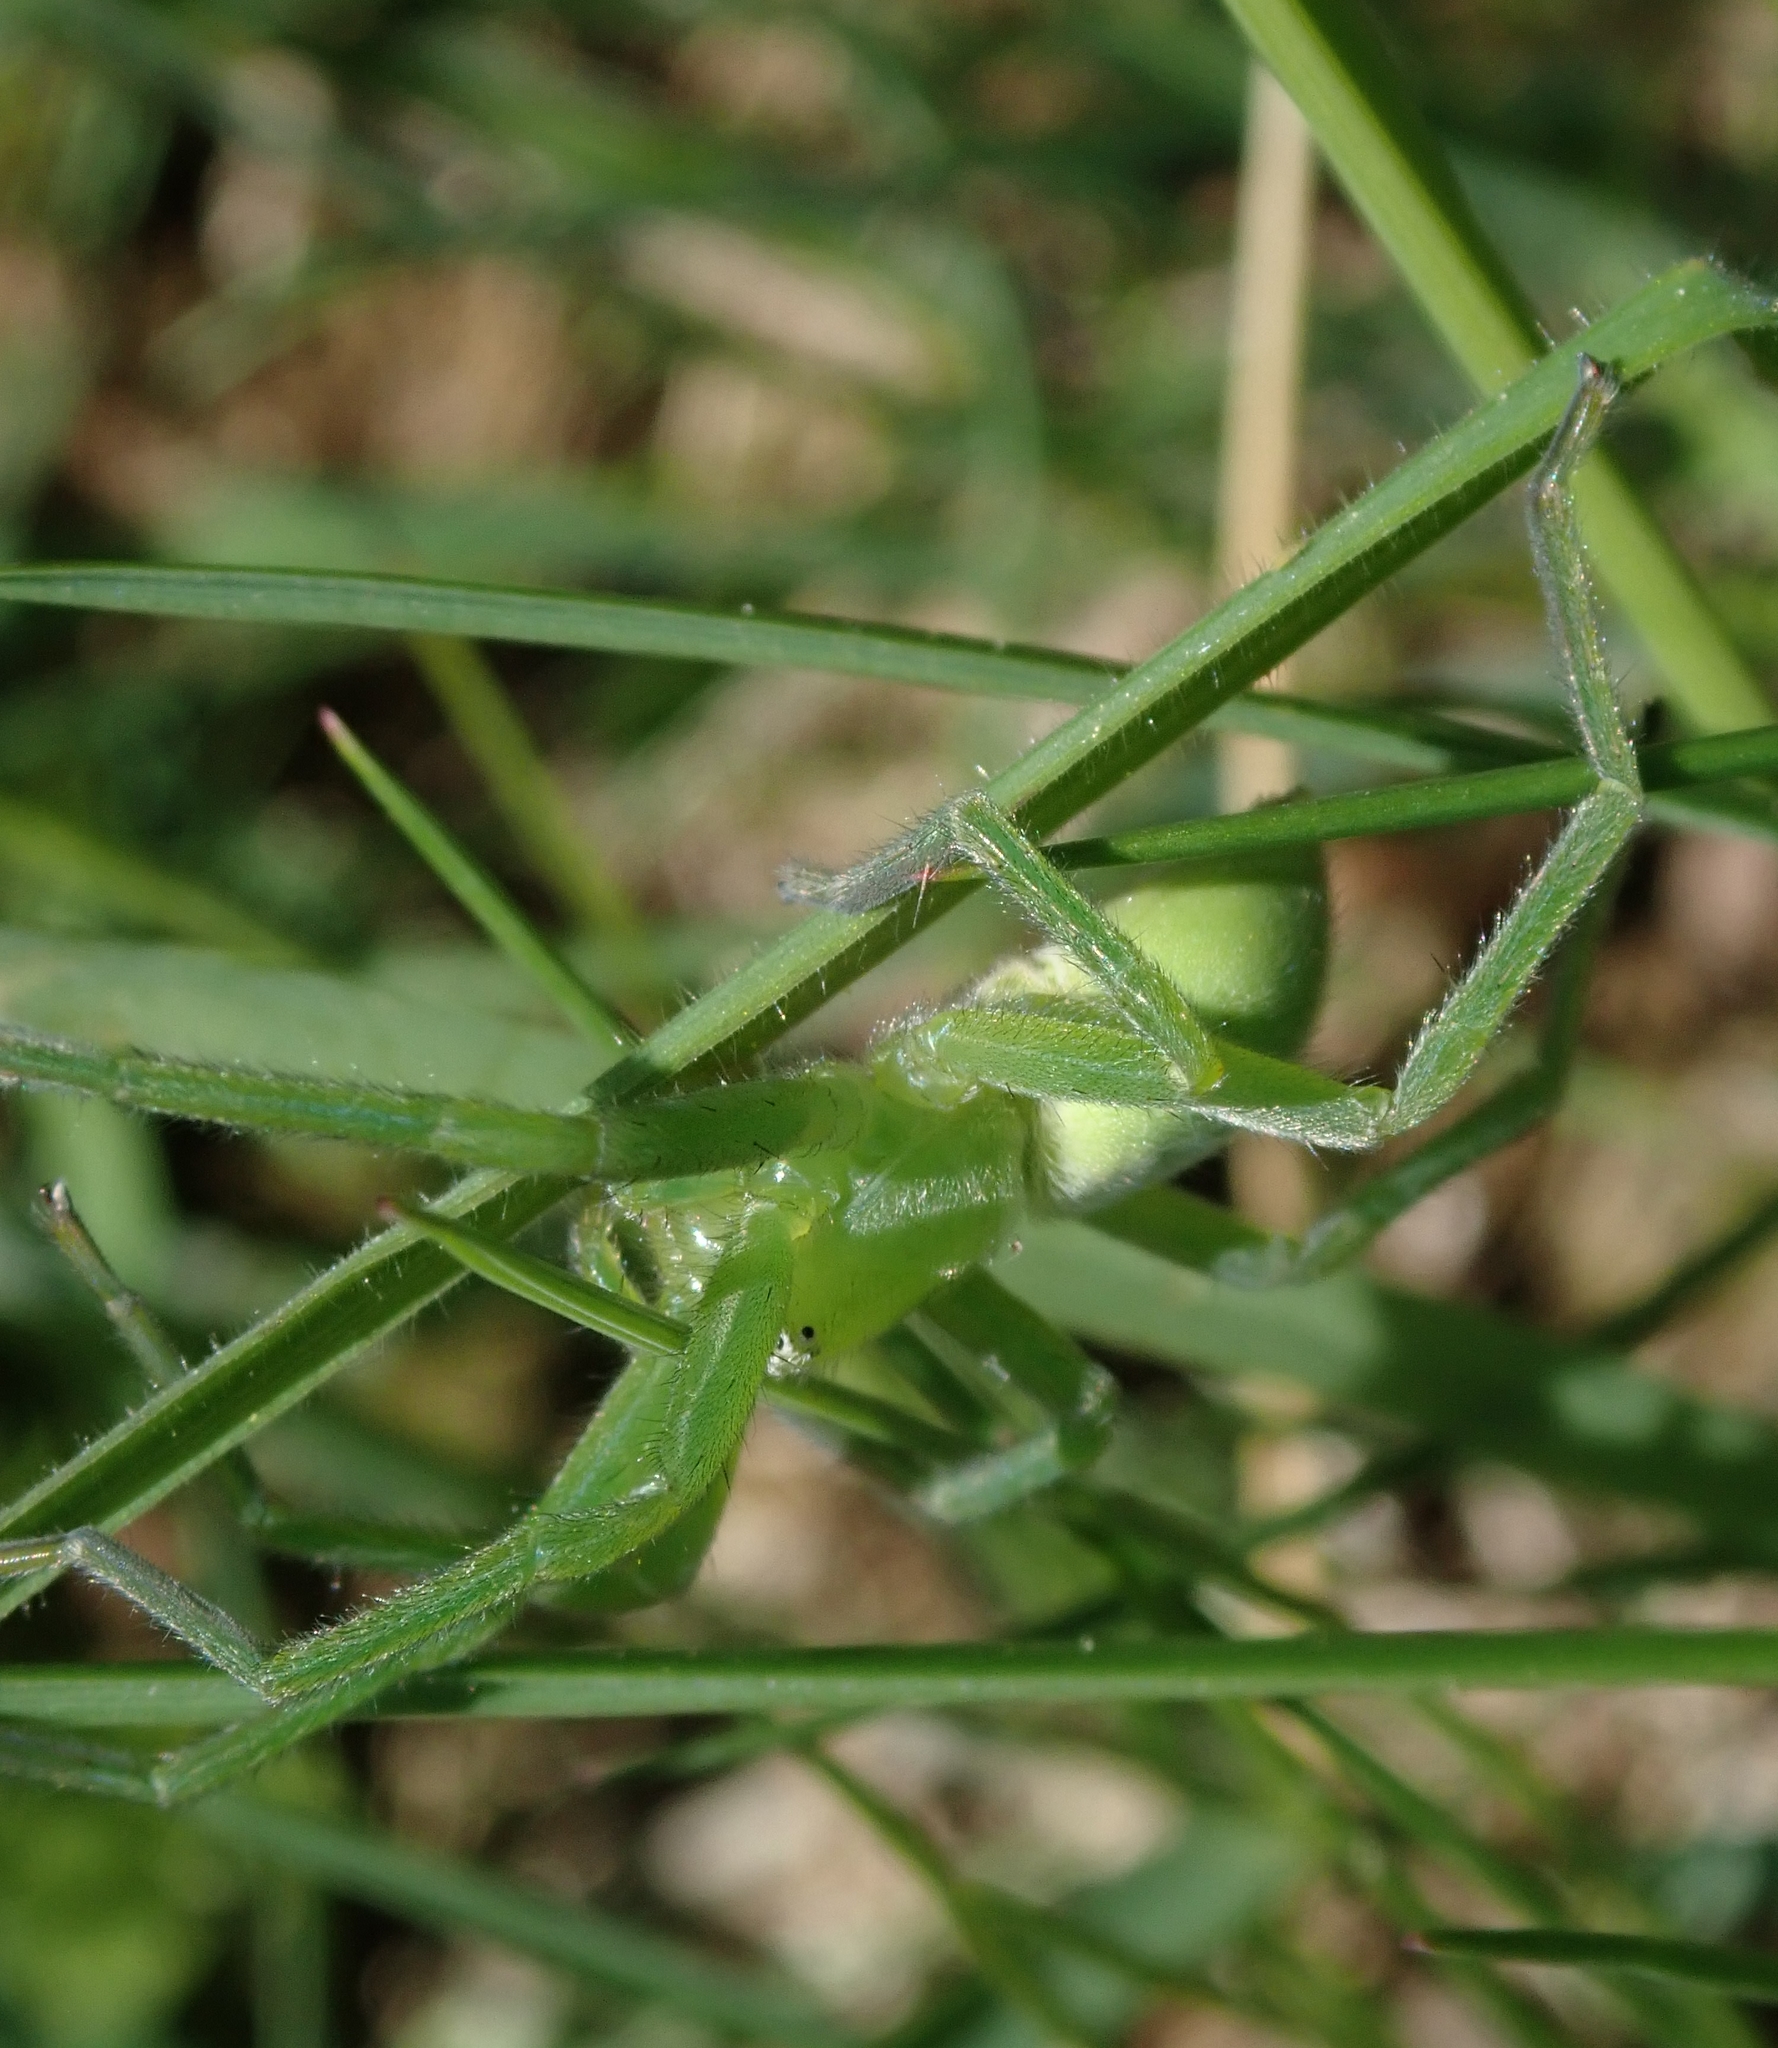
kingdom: Animalia
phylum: Arthropoda
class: Arachnida
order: Araneae
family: Sparassidae
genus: Micrommata
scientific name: Micrommata virescens
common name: Green spider
